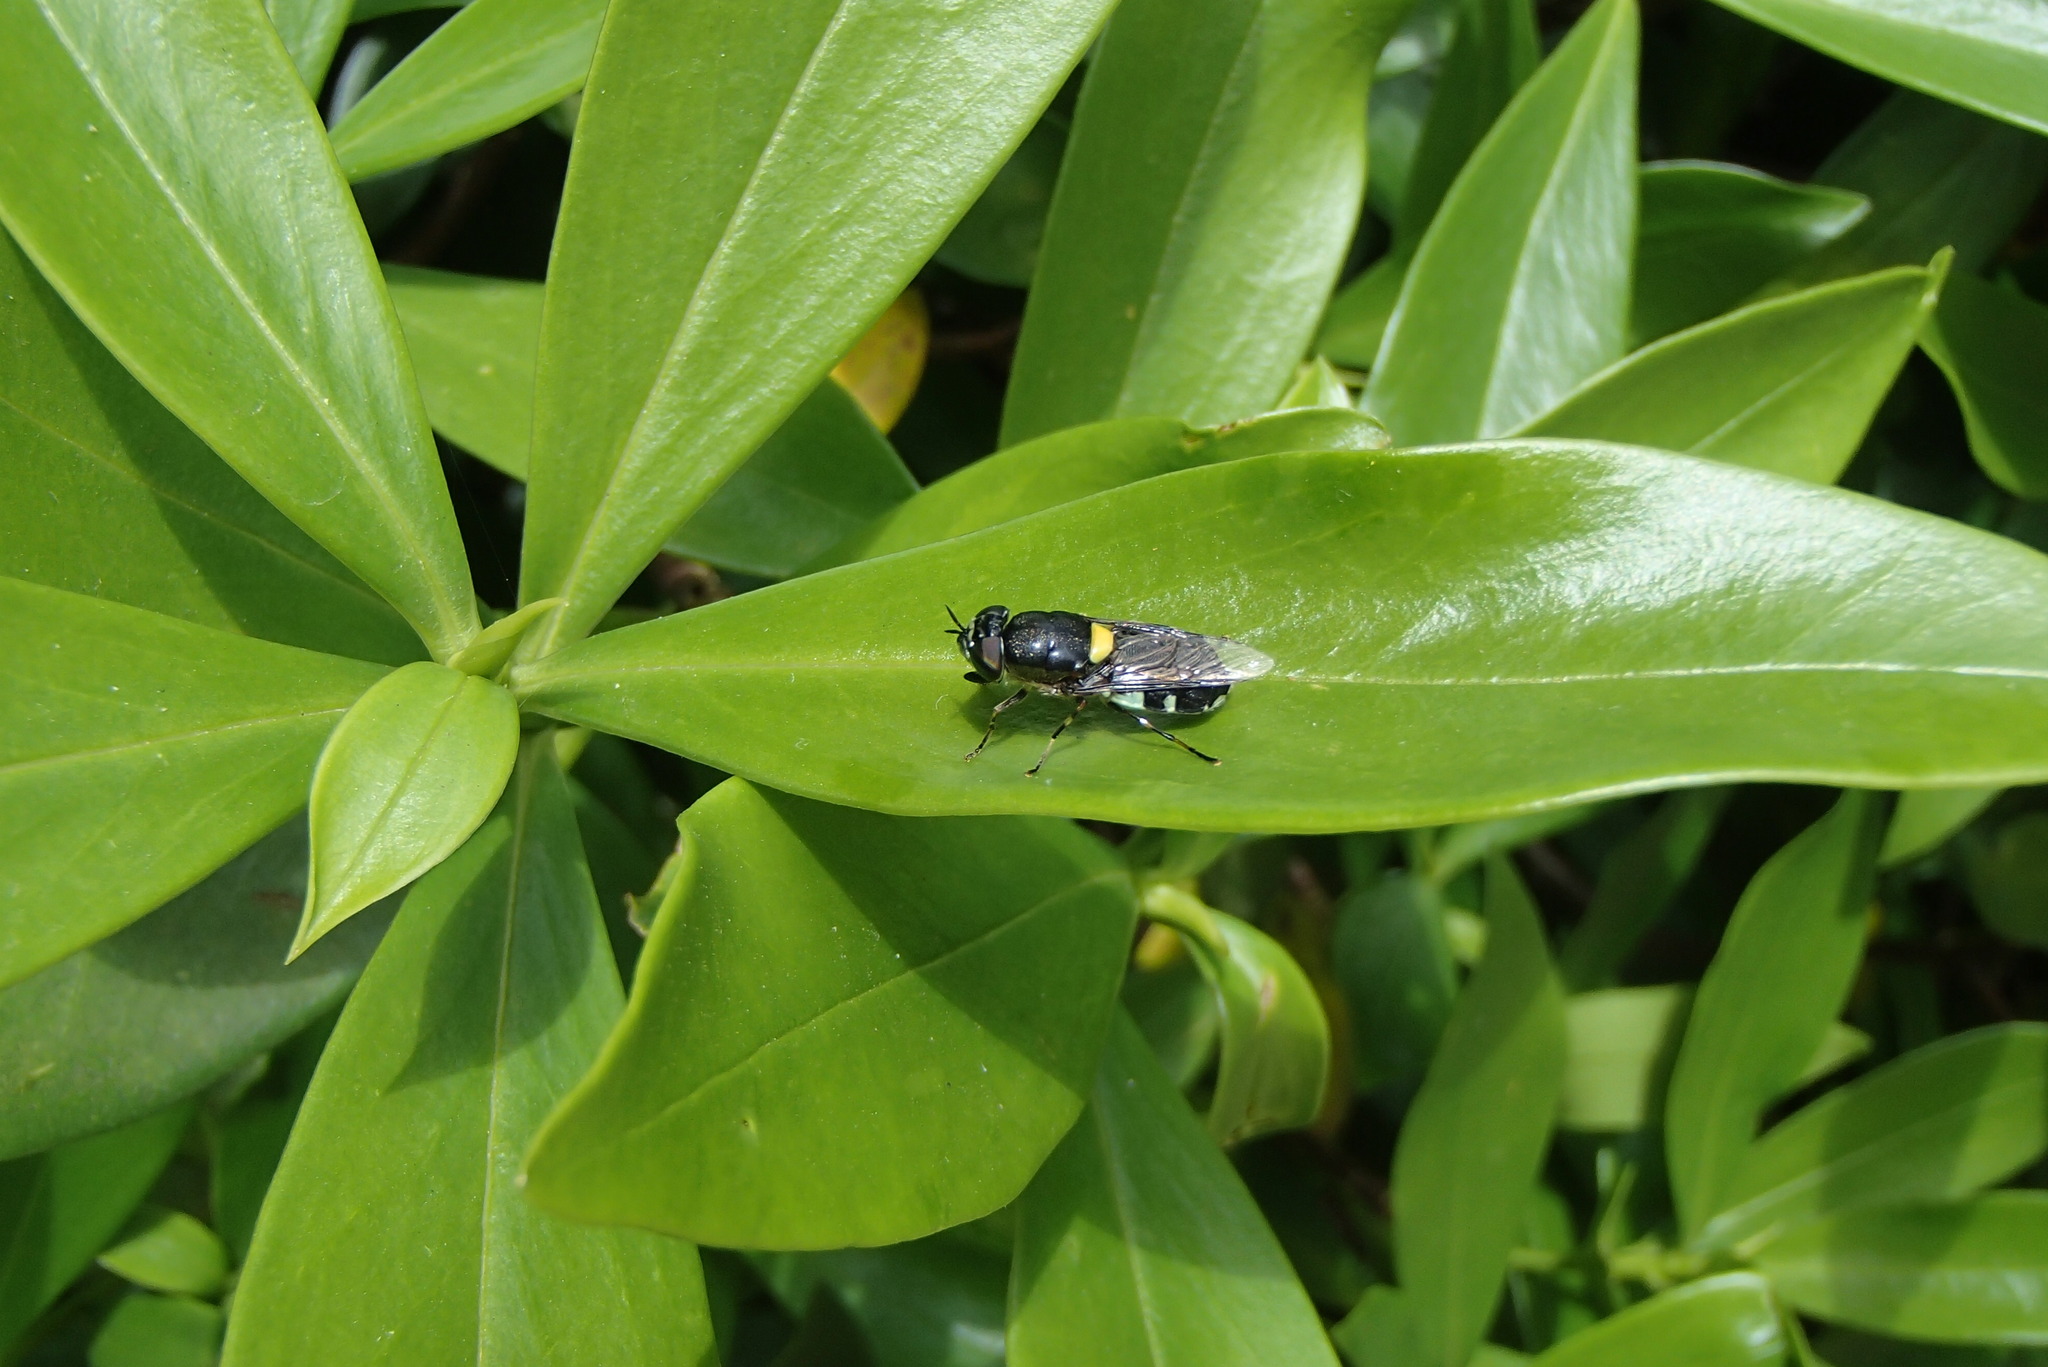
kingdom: Animalia
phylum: Arthropoda
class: Insecta
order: Diptera
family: Stratiomyidae
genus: Odontomyia
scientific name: Odontomyia hunteri
